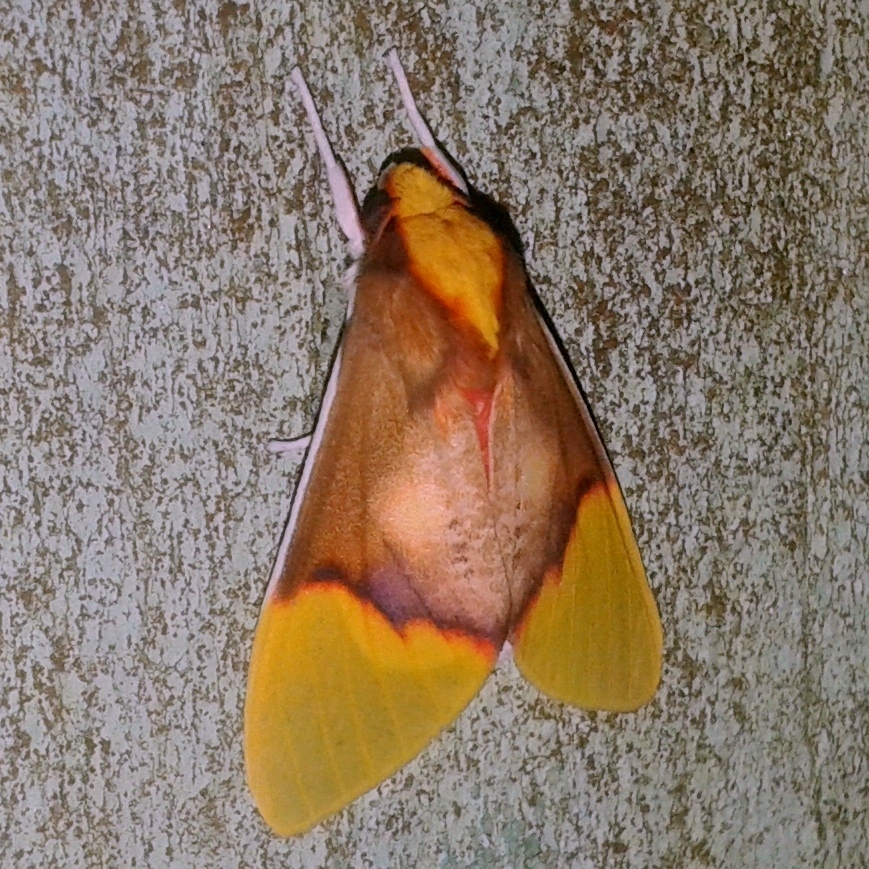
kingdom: Animalia
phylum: Arthropoda
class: Insecta
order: Lepidoptera
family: Erebidae
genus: Demolis
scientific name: Demolis albicostata
